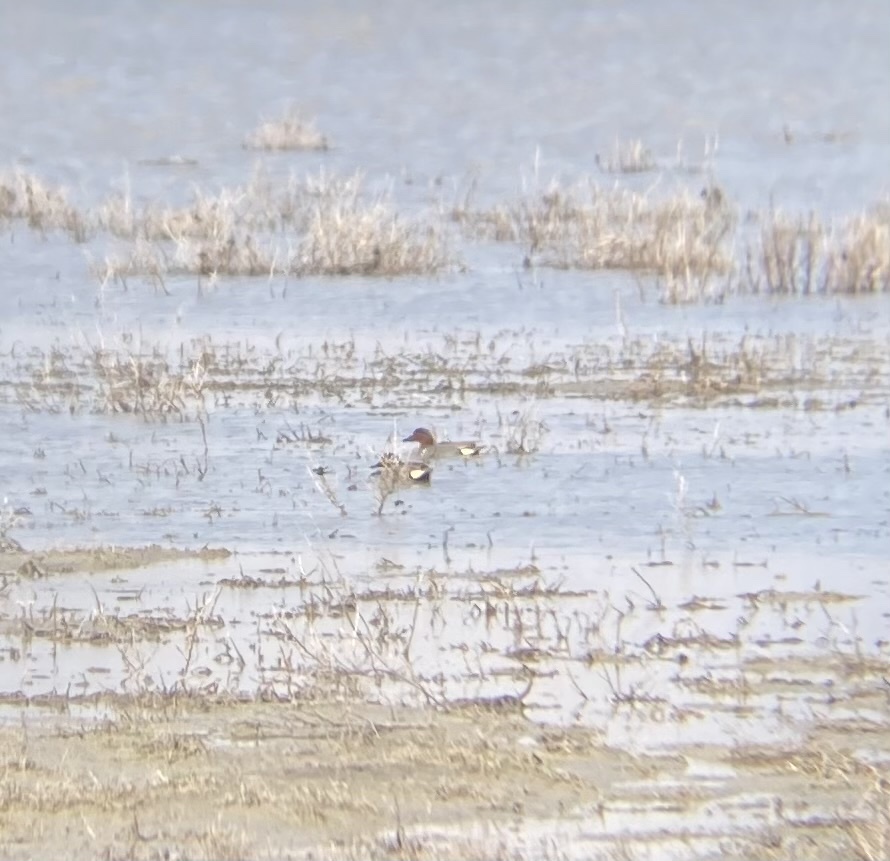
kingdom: Animalia
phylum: Chordata
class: Aves
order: Anseriformes
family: Anatidae
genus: Anas
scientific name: Anas crecca
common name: Eurasian teal
